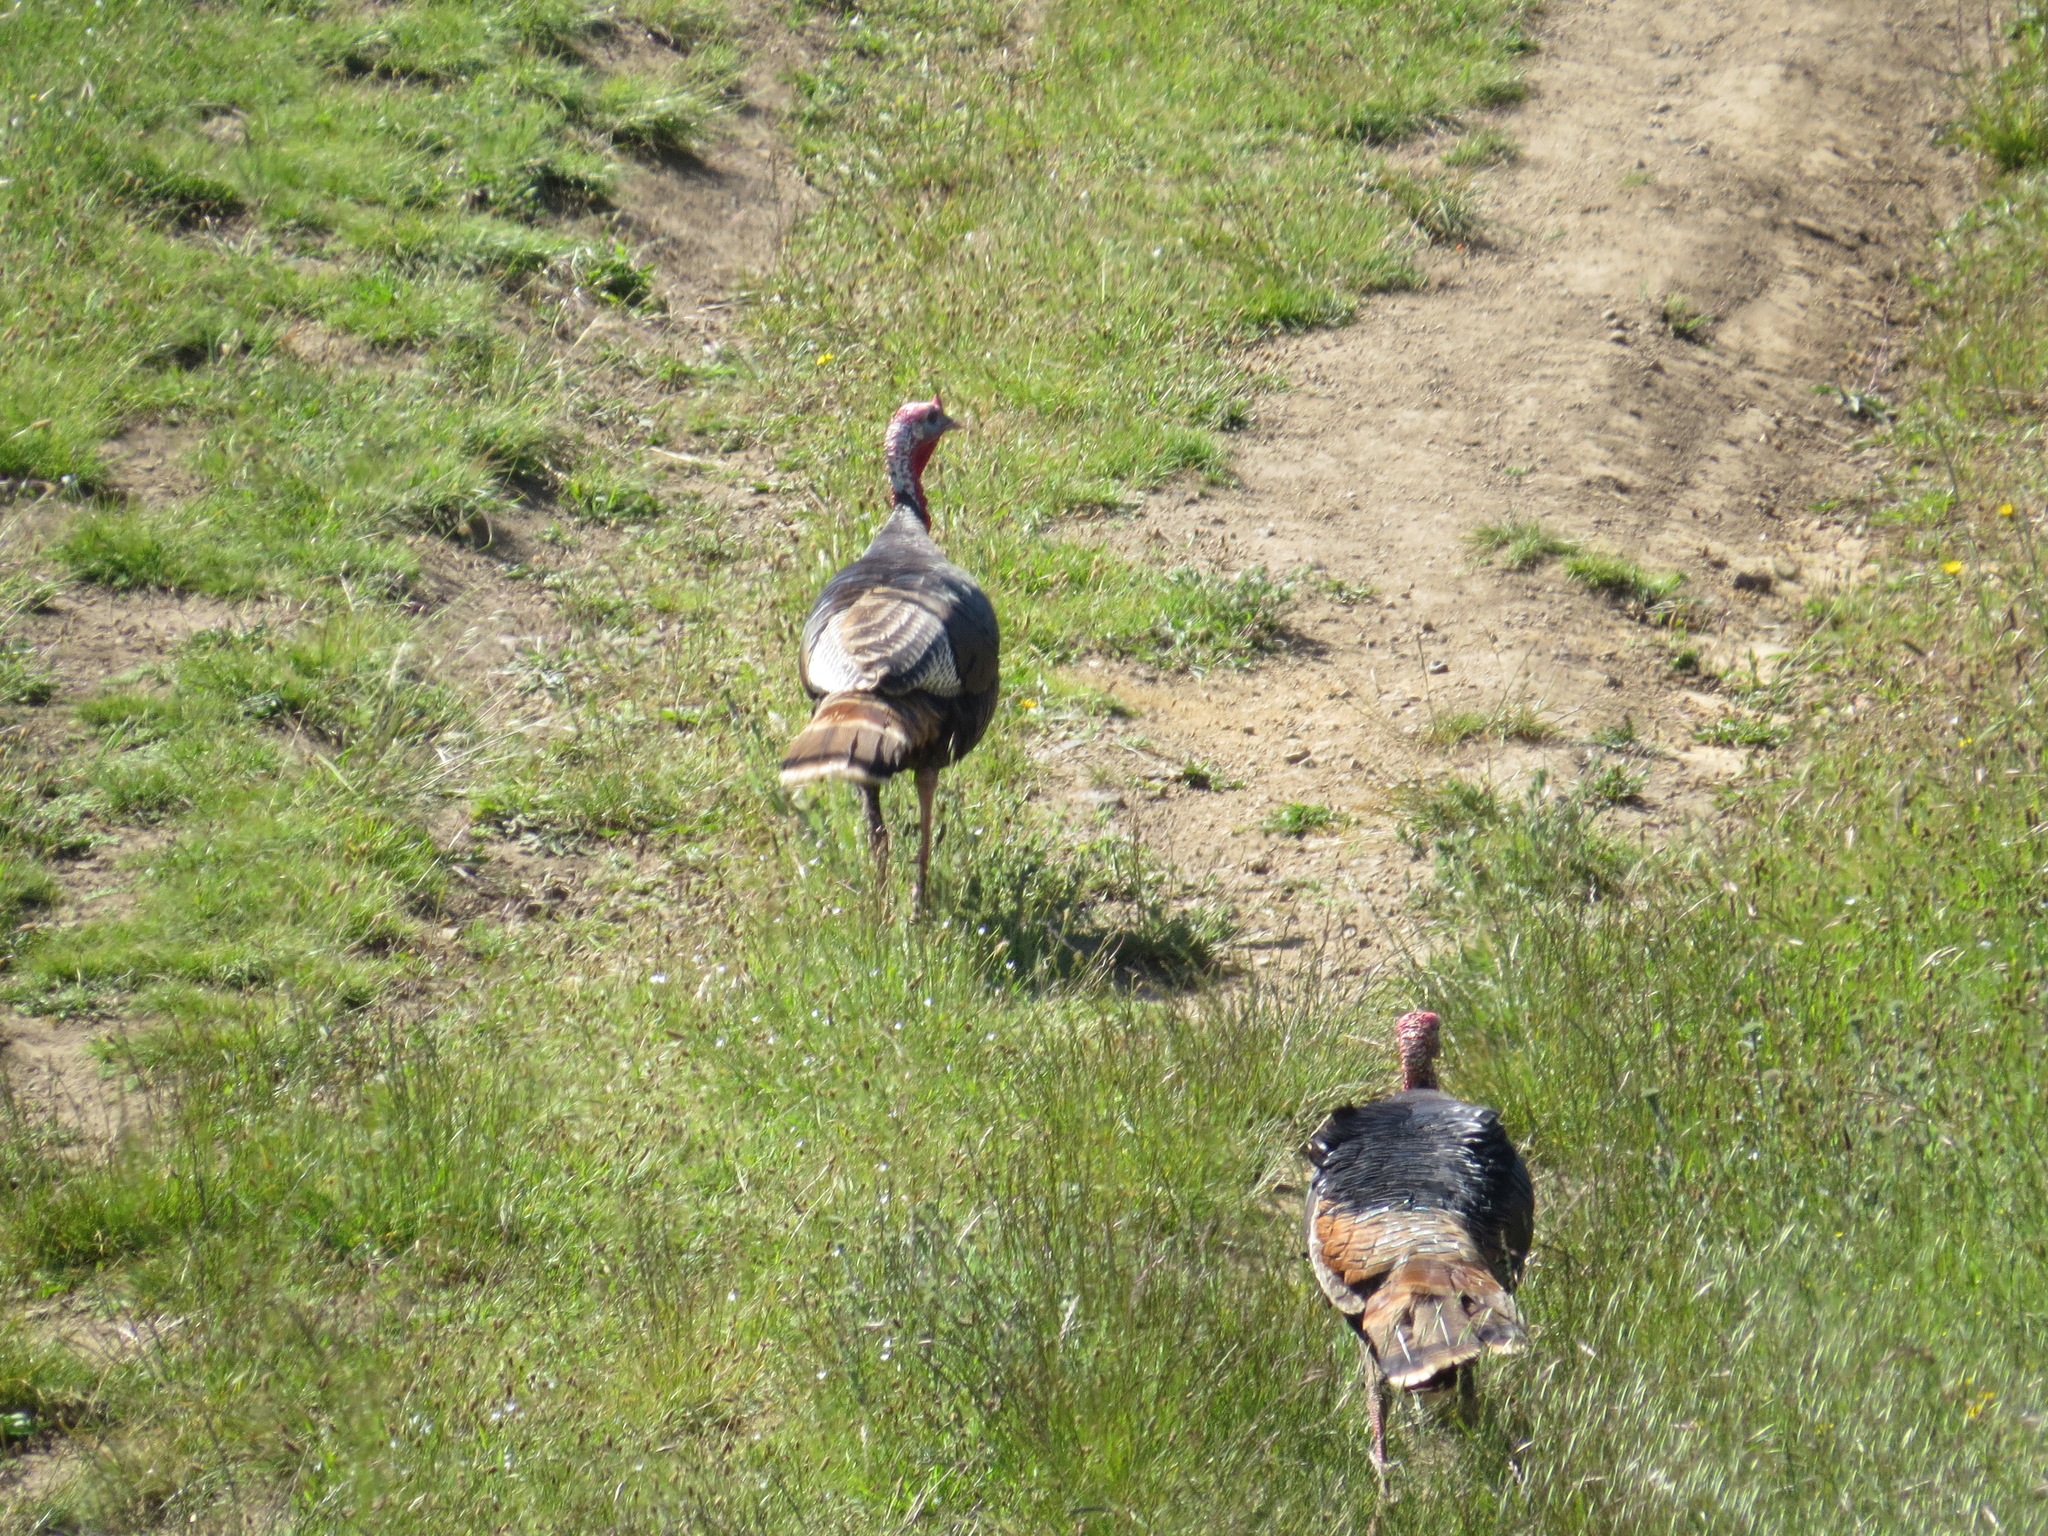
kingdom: Animalia
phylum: Chordata
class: Aves
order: Galliformes
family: Phasianidae
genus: Meleagris
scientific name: Meleagris gallopavo
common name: Wild turkey
